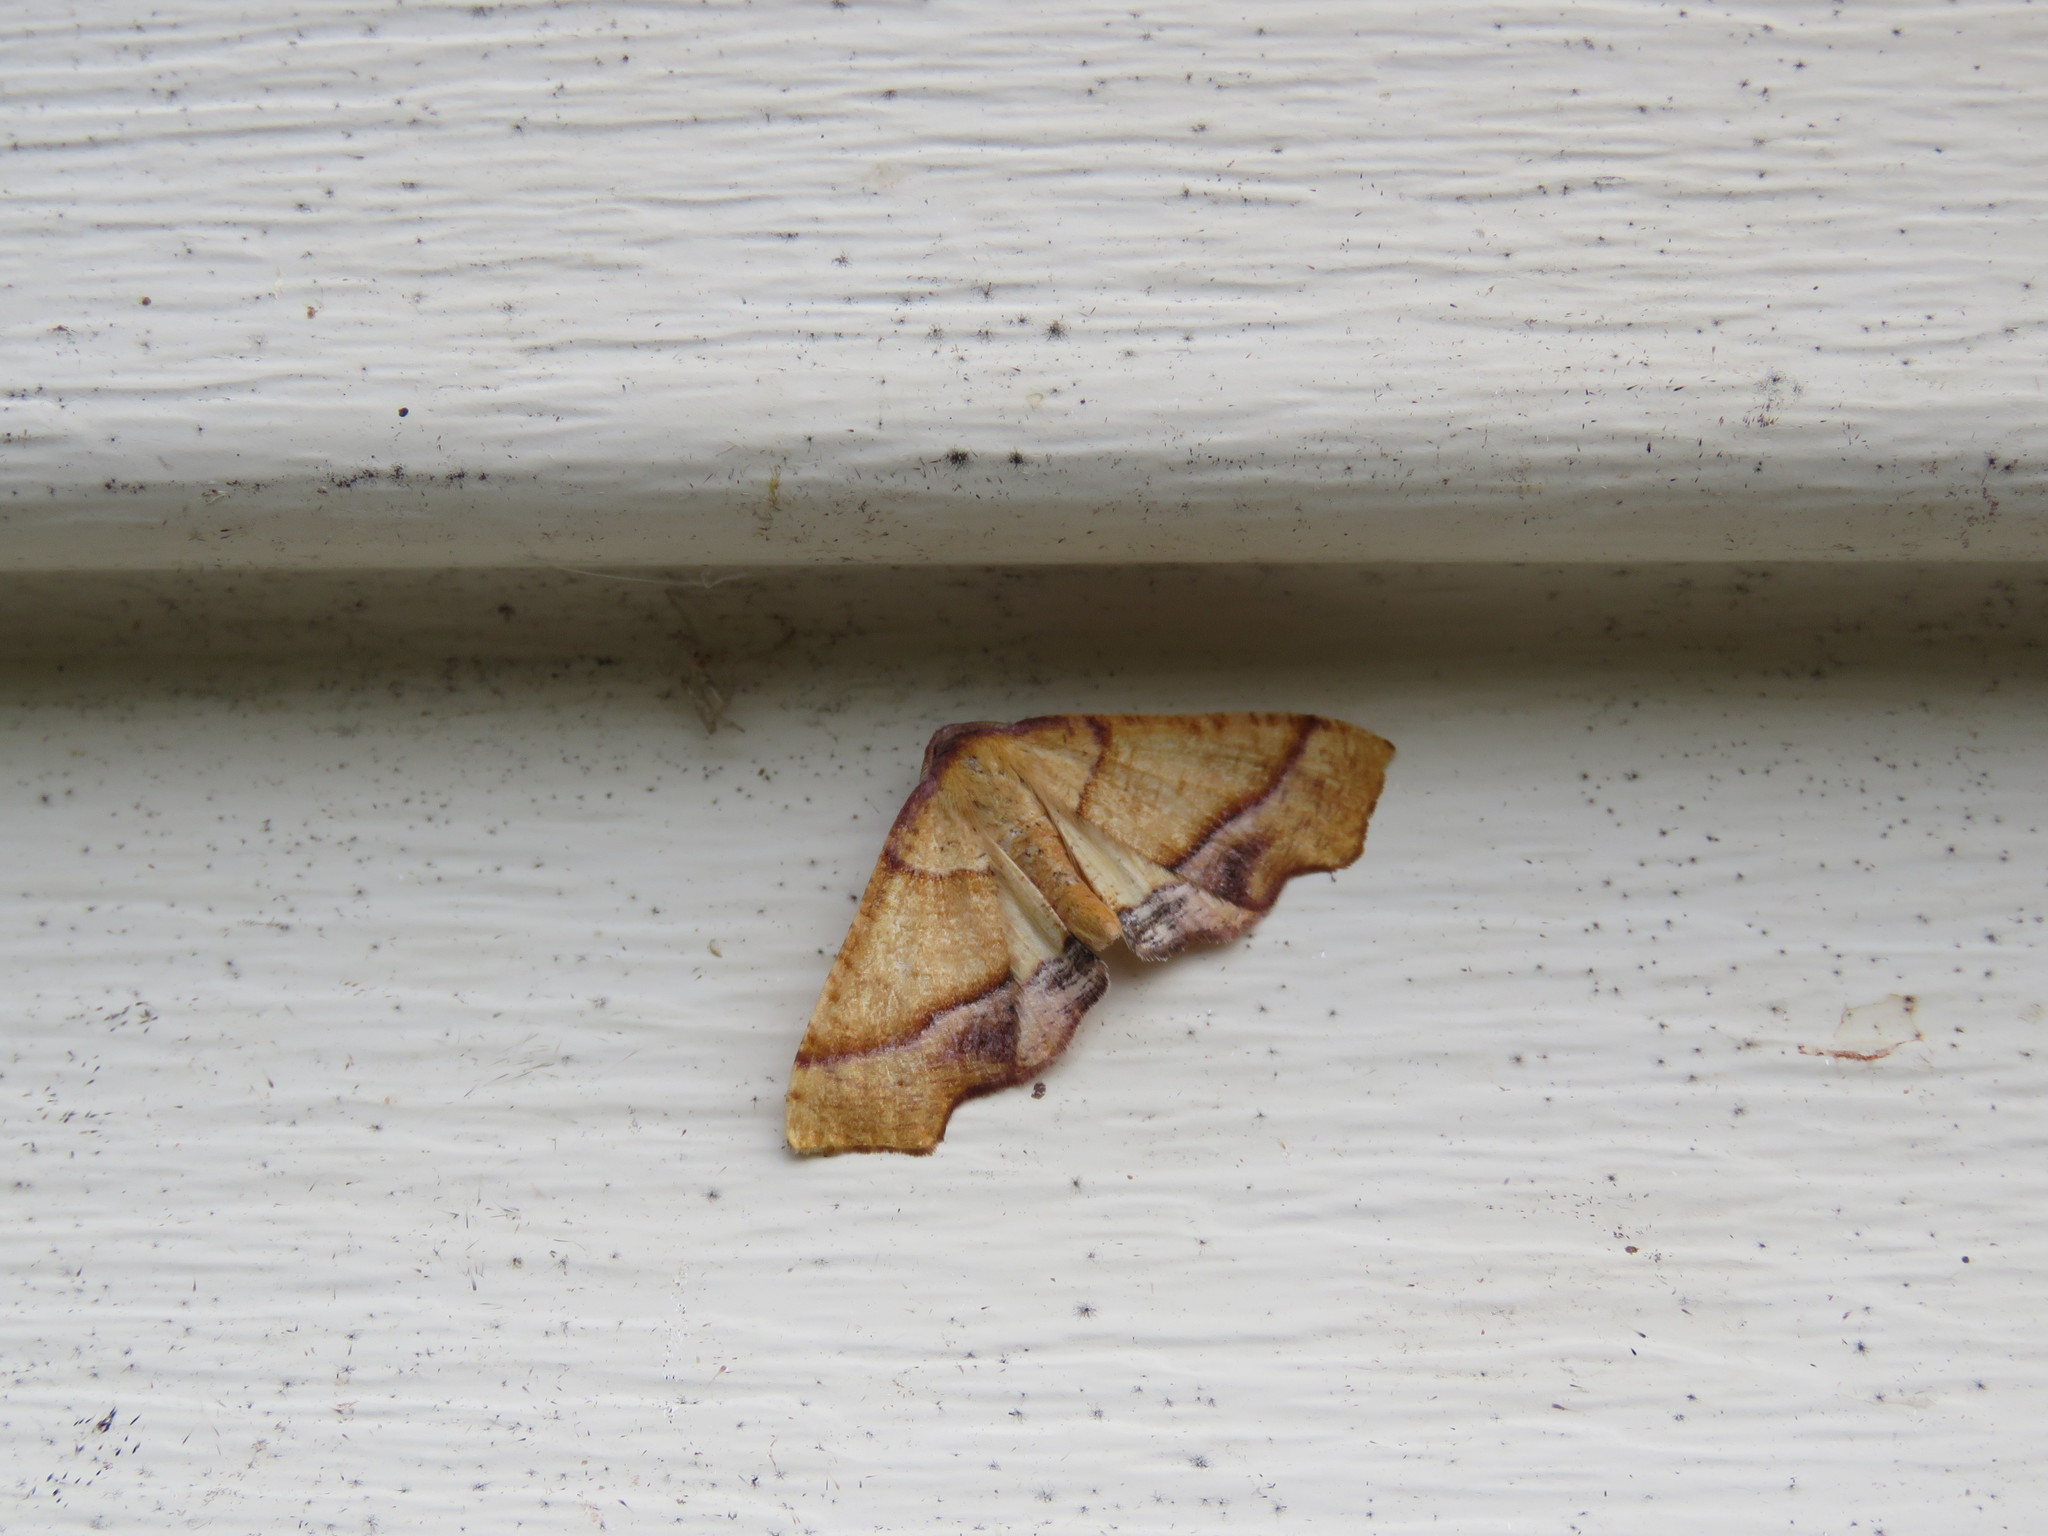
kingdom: Animalia
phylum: Arthropoda
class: Insecta
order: Lepidoptera
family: Geometridae
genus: Plagodis
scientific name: Plagodis phlogosaria
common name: Straight-lined plagodis
